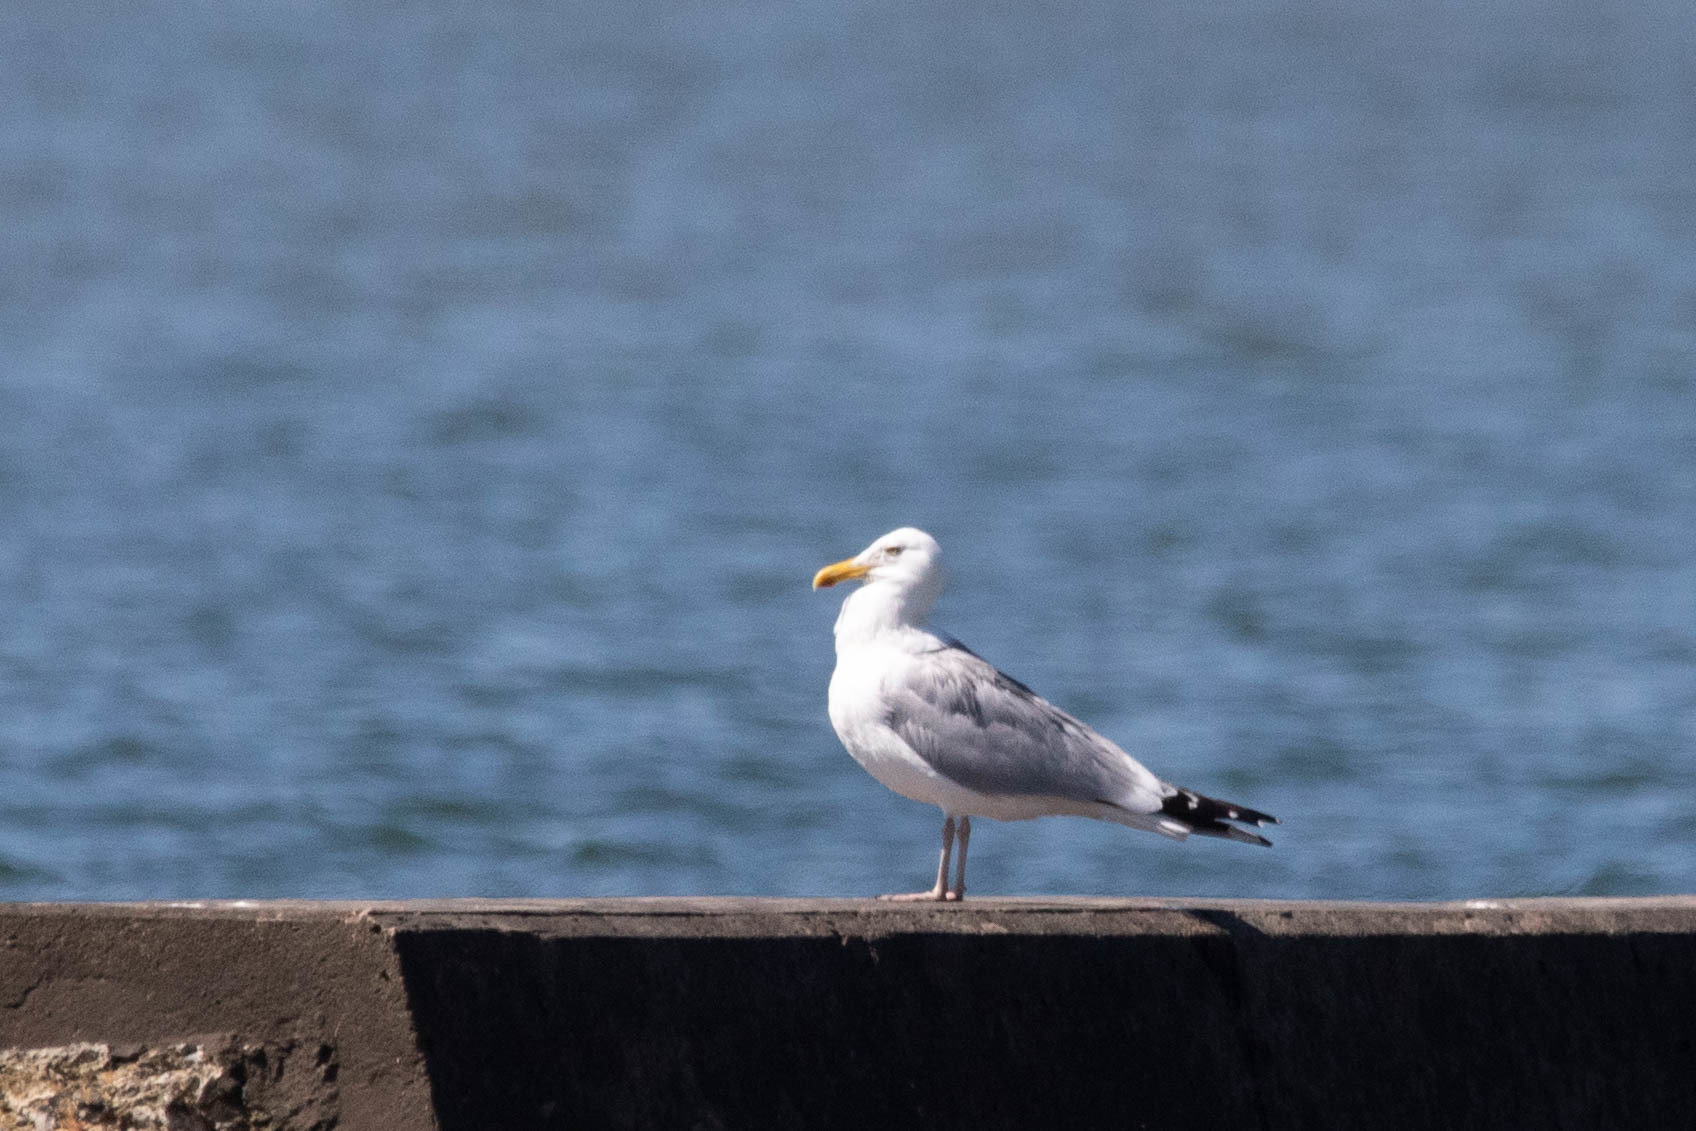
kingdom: Animalia
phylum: Chordata
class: Aves
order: Charadriiformes
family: Laridae
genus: Larus
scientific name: Larus argentatus
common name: Herring gull
